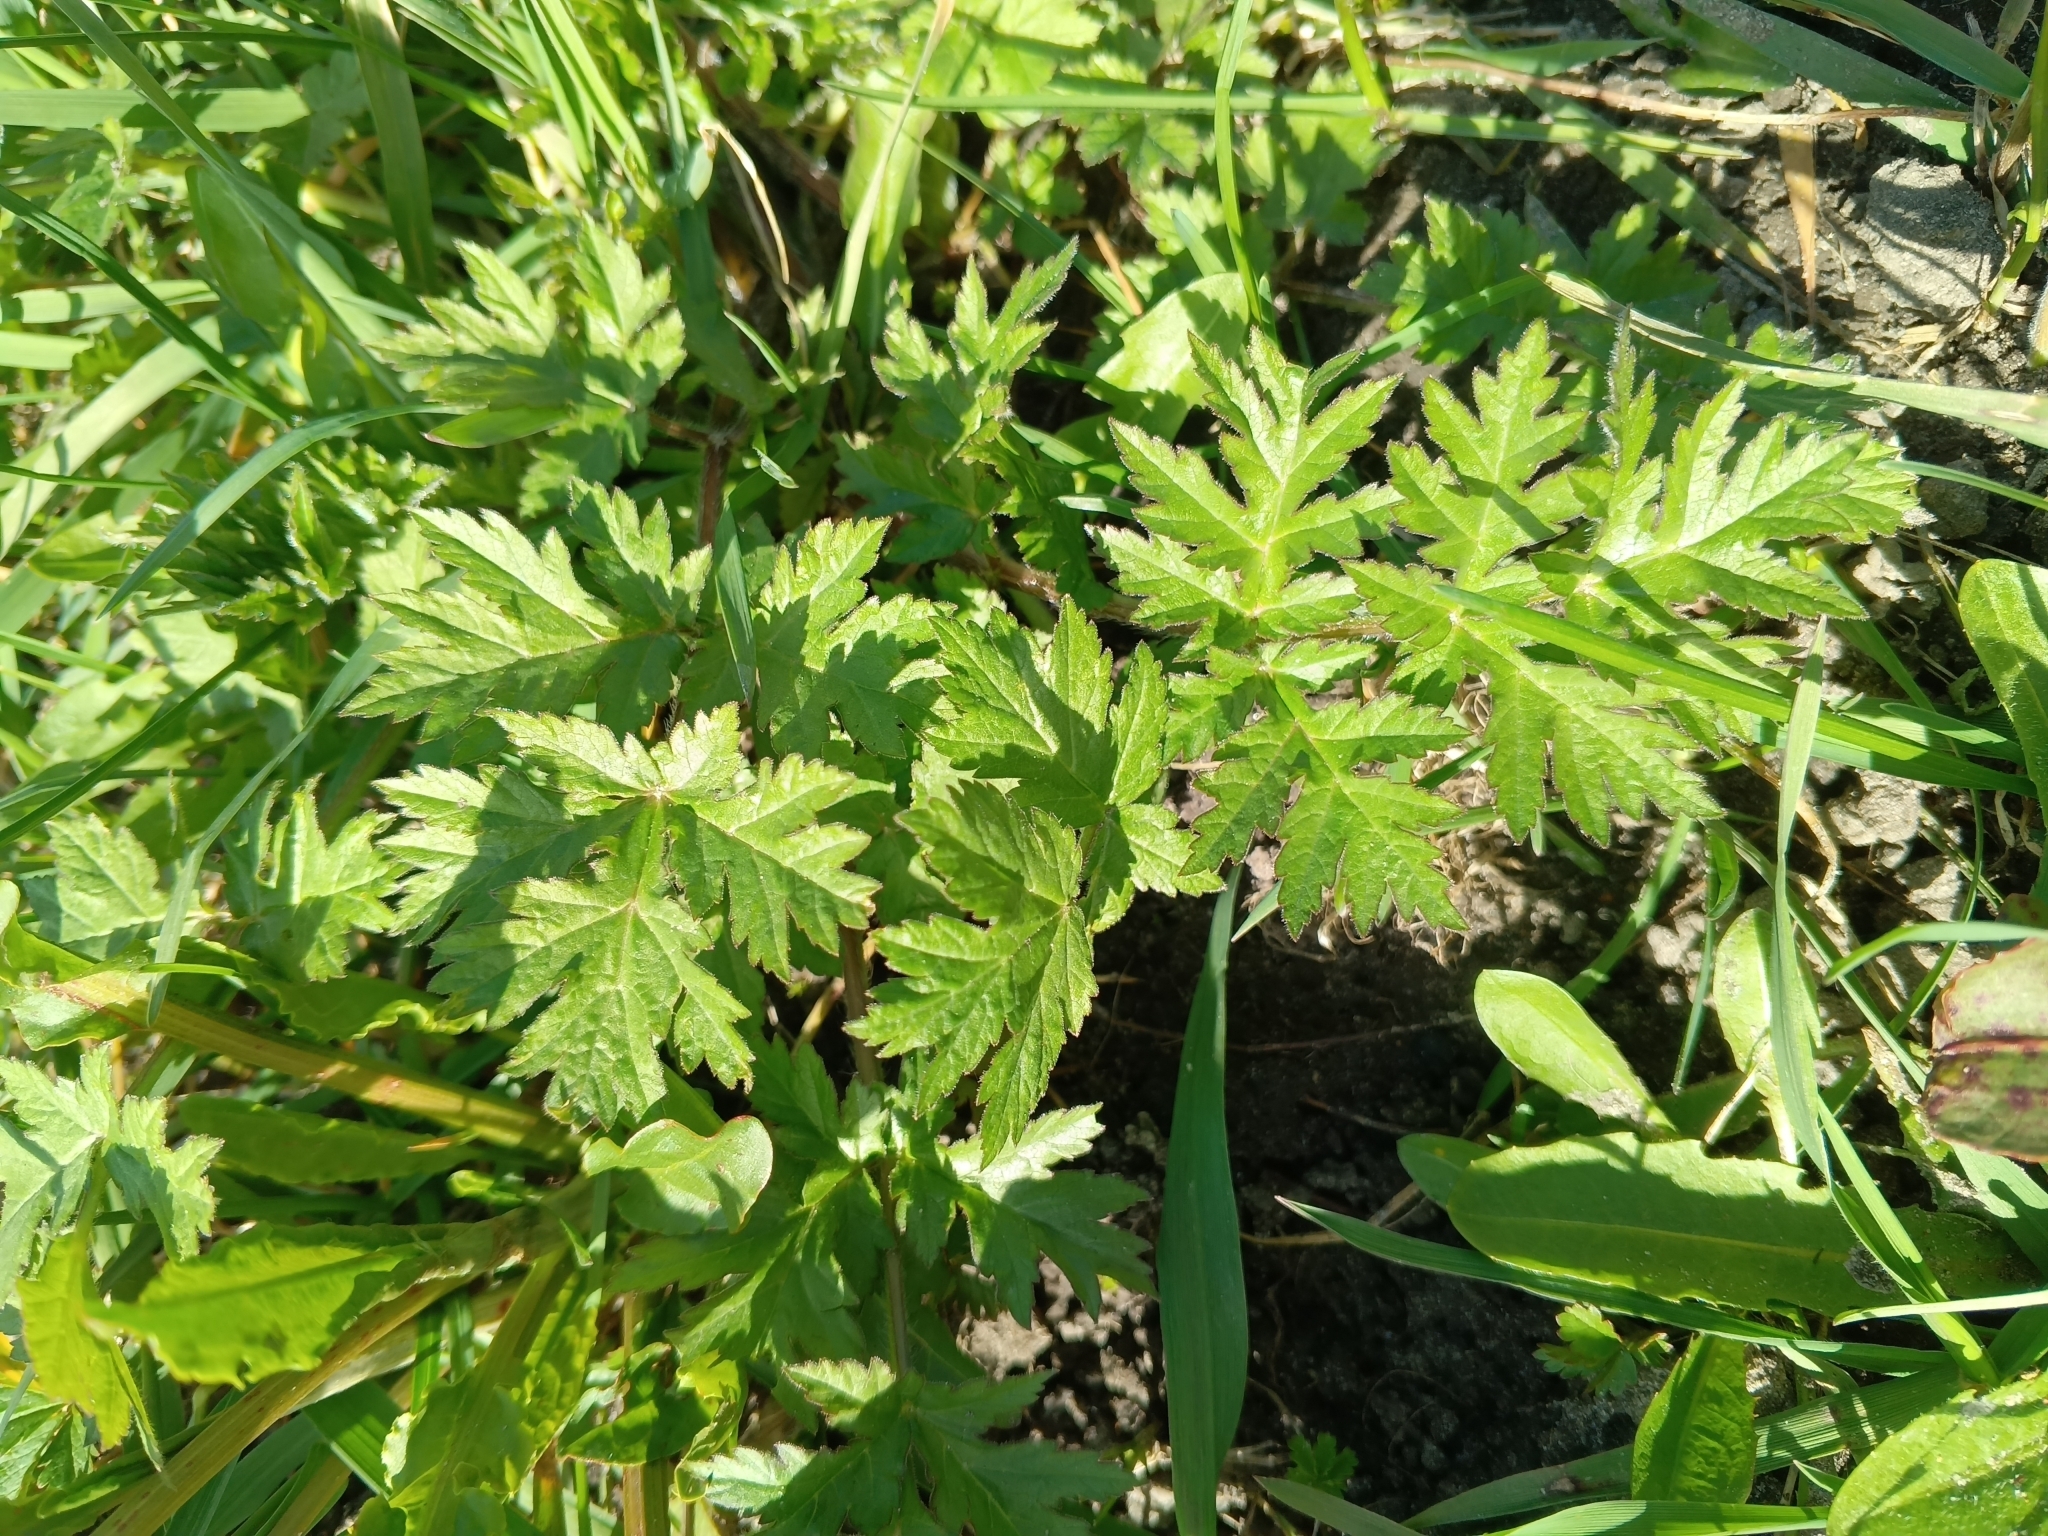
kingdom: Plantae
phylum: Tracheophyta
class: Magnoliopsida
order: Apiales
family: Apiaceae
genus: Heracleum
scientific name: Heracleum sphondylium
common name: Hogweed
